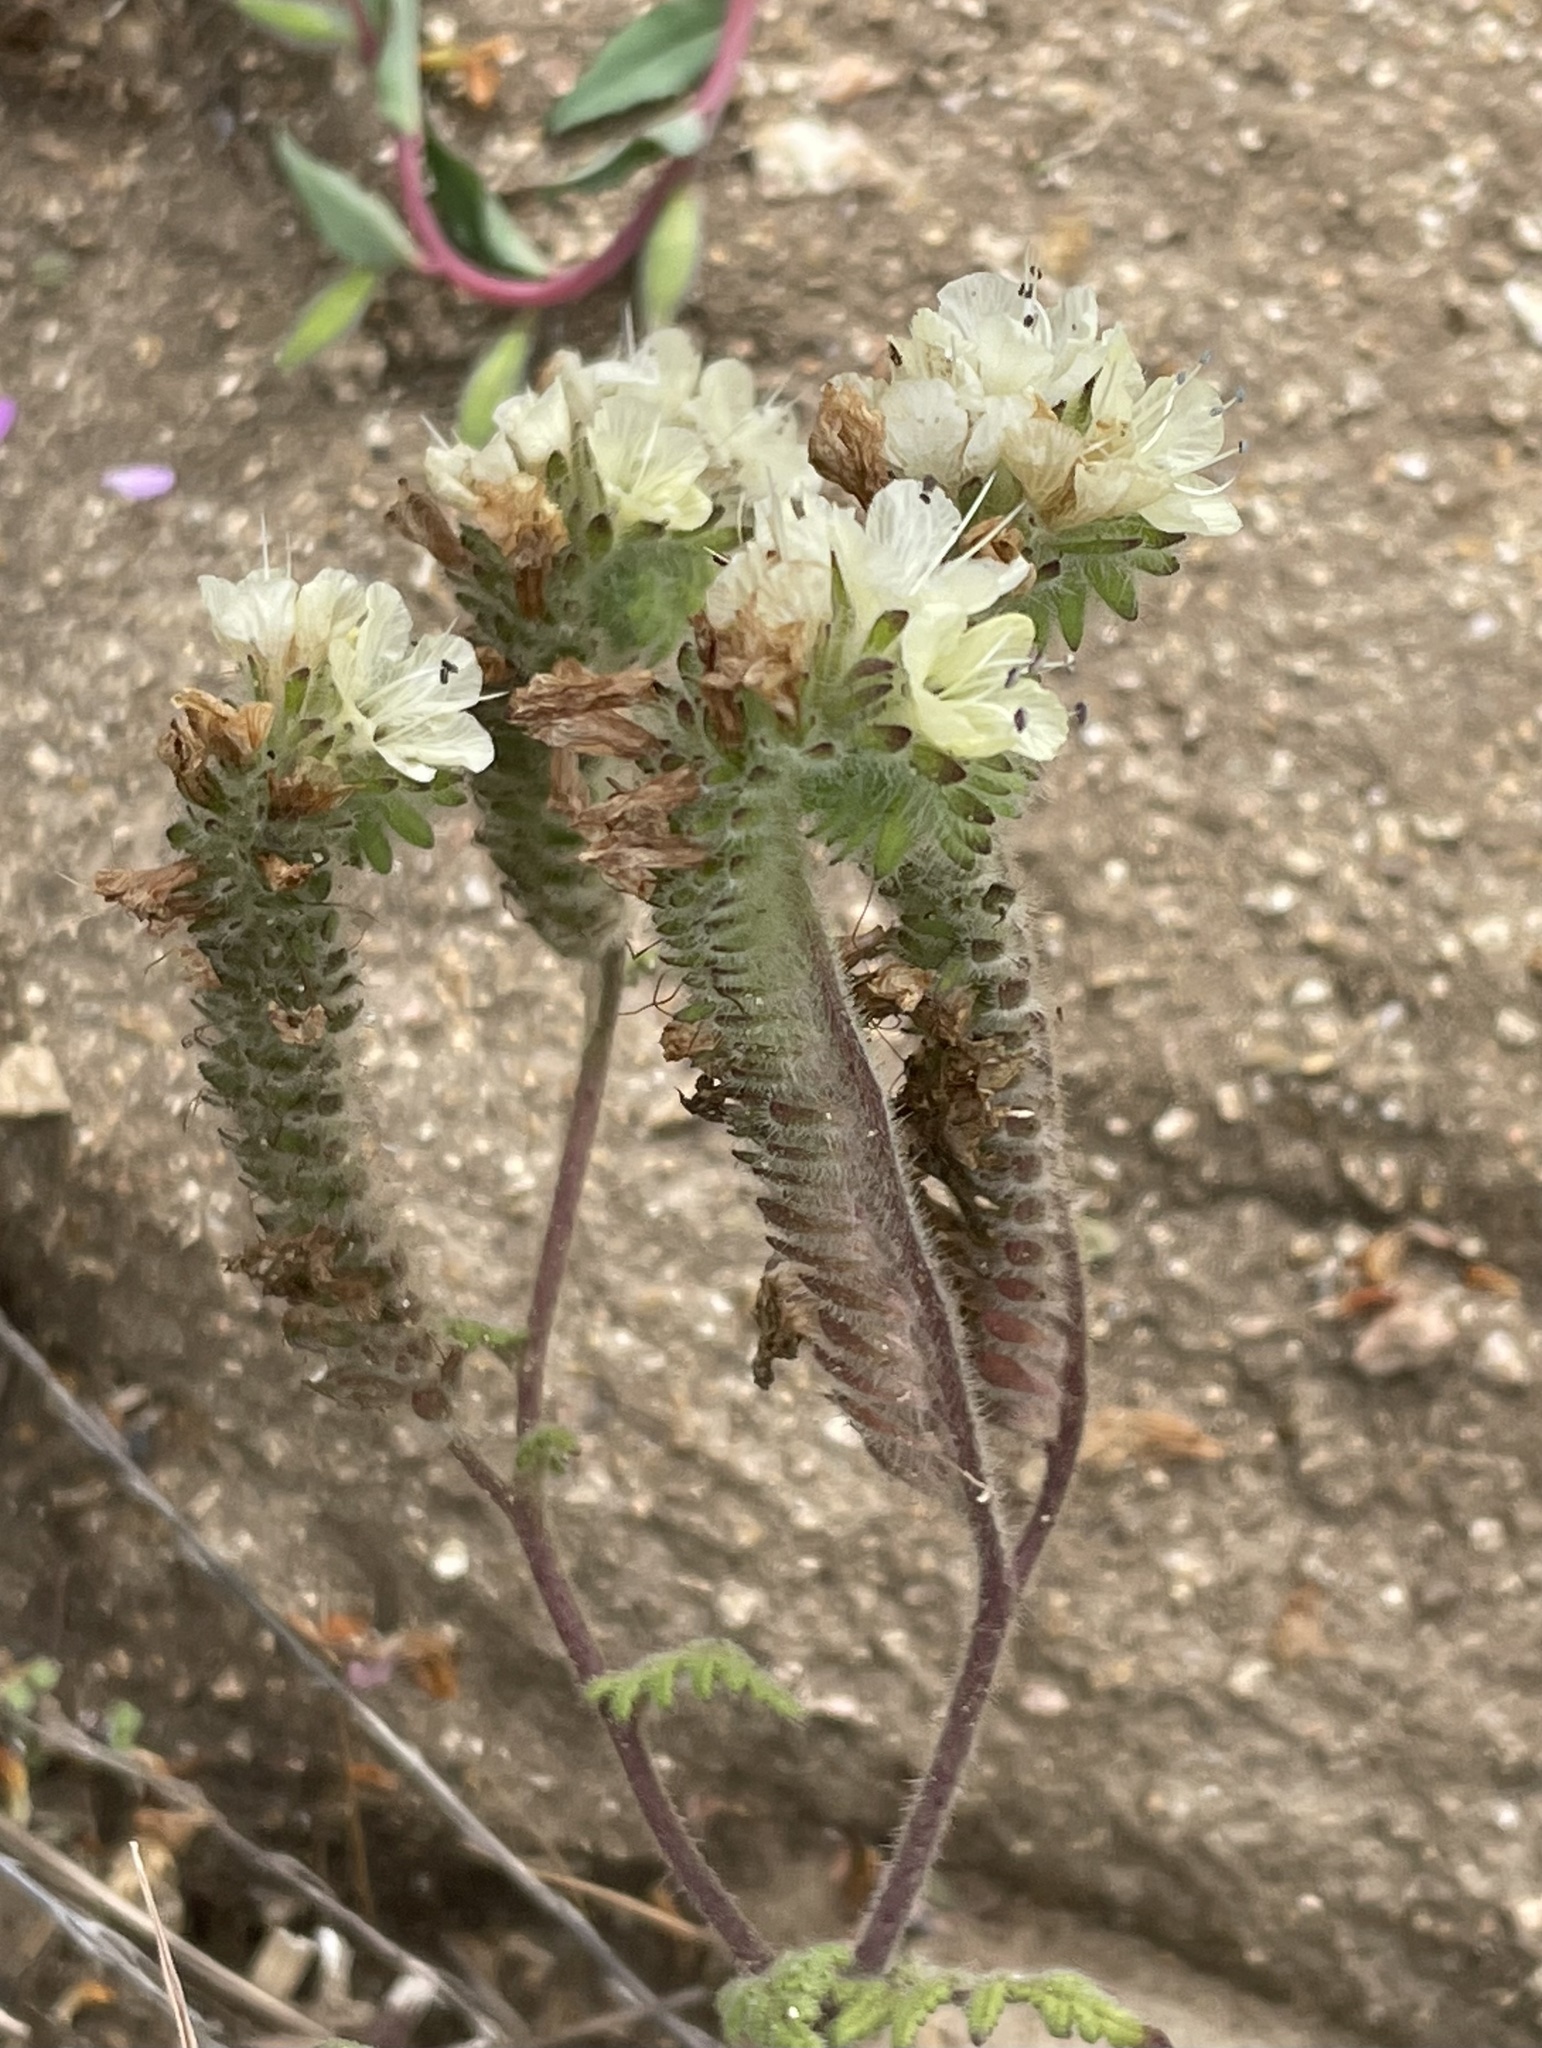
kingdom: Plantae
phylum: Tracheophyta
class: Magnoliopsida
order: Boraginales
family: Hydrophyllaceae
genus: Phacelia
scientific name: Phacelia distans
